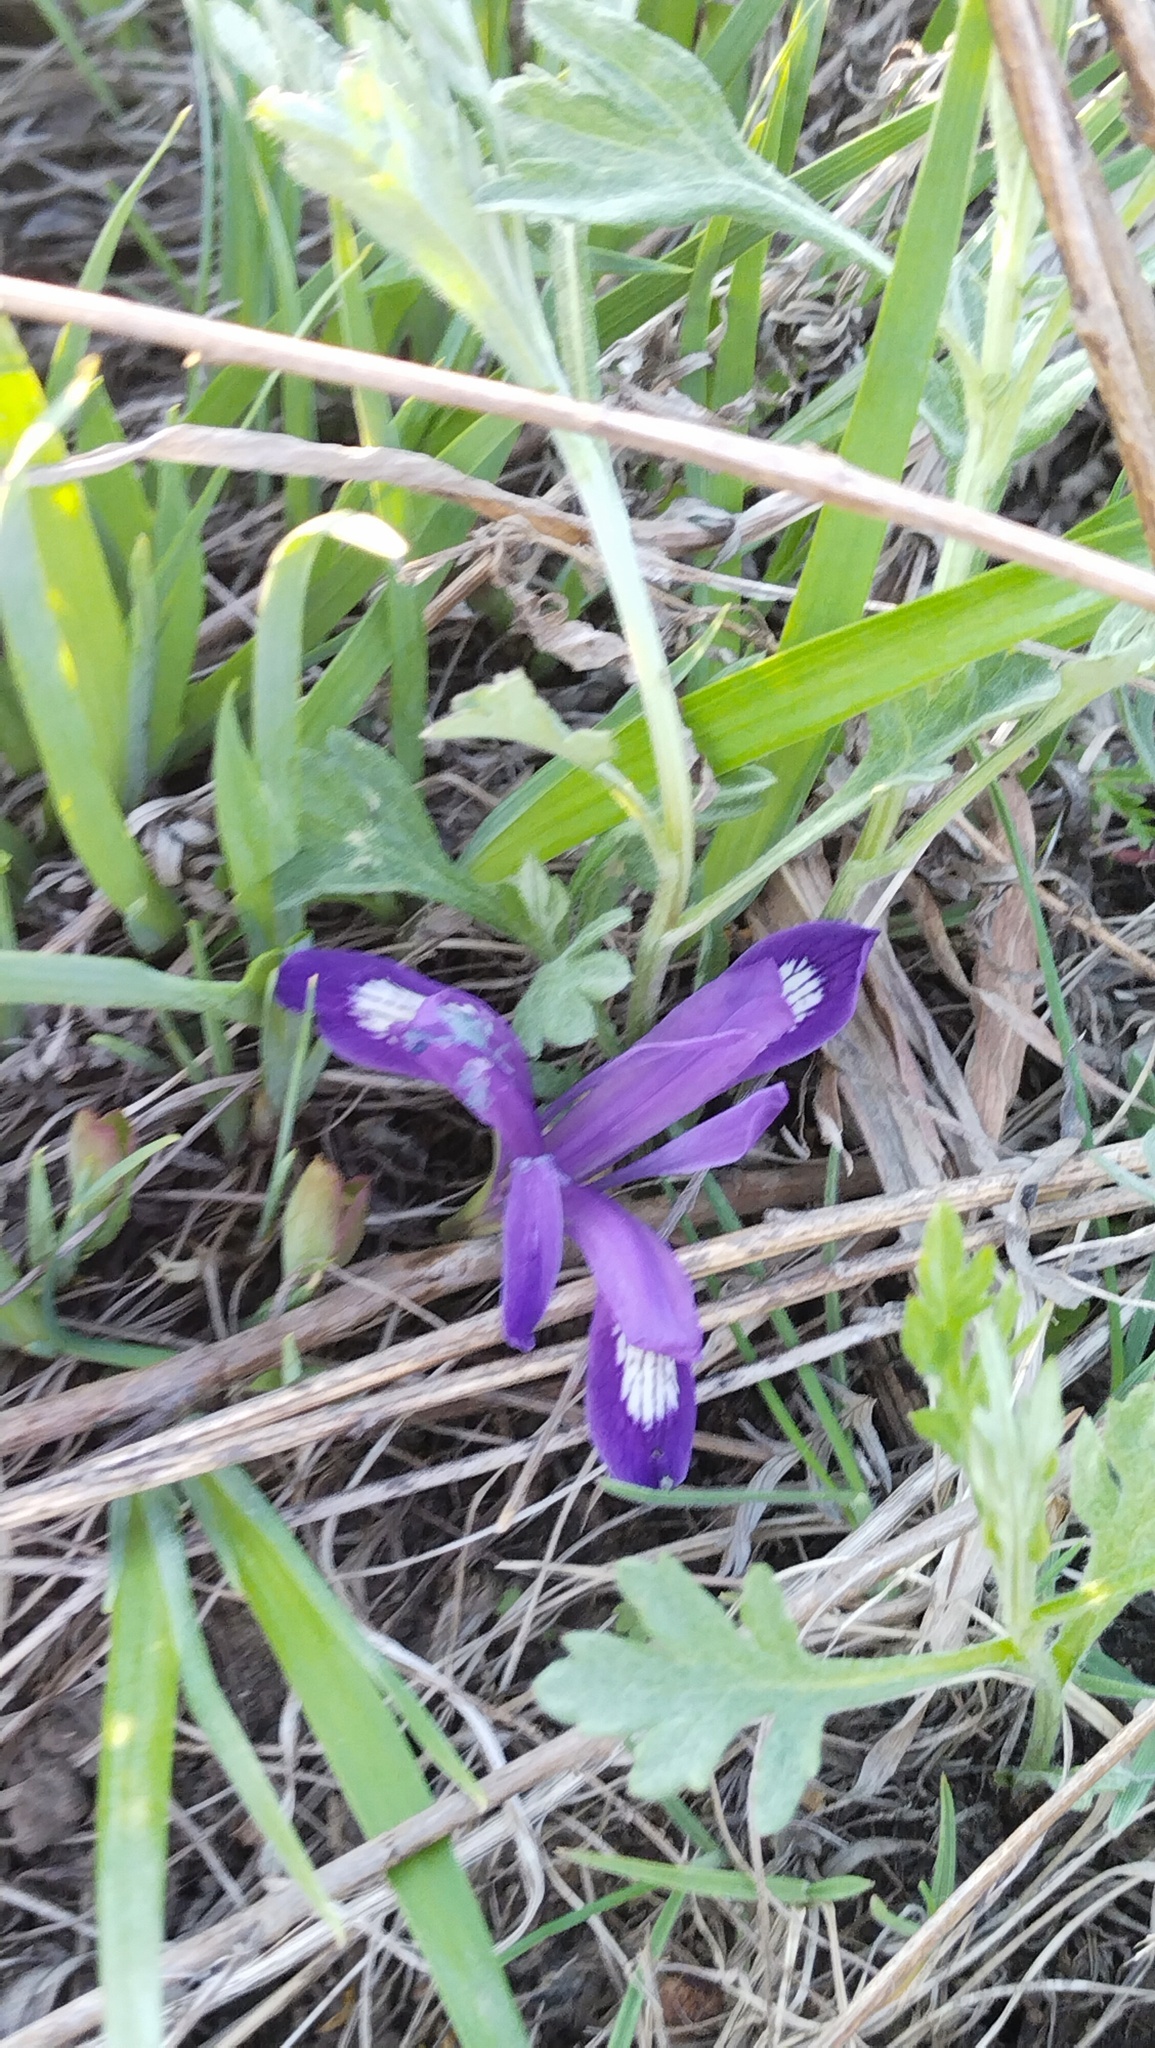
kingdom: Plantae
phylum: Tracheophyta
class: Liliopsida
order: Asparagales
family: Iridaceae
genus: Iris
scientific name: Iris uniflora
